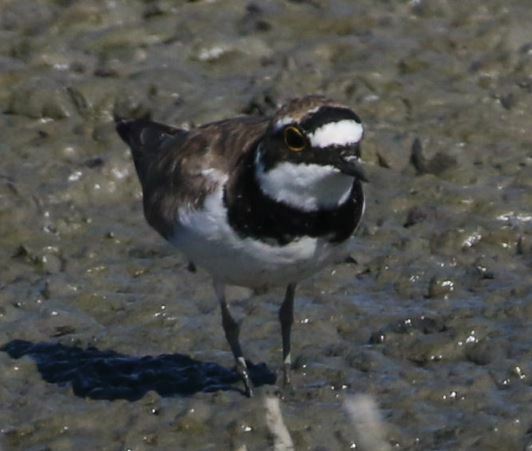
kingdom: Animalia
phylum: Chordata
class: Aves
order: Charadriiformes
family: Charadriidae
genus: Charadrius
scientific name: Charadrius dubius
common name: Little ringed plover
